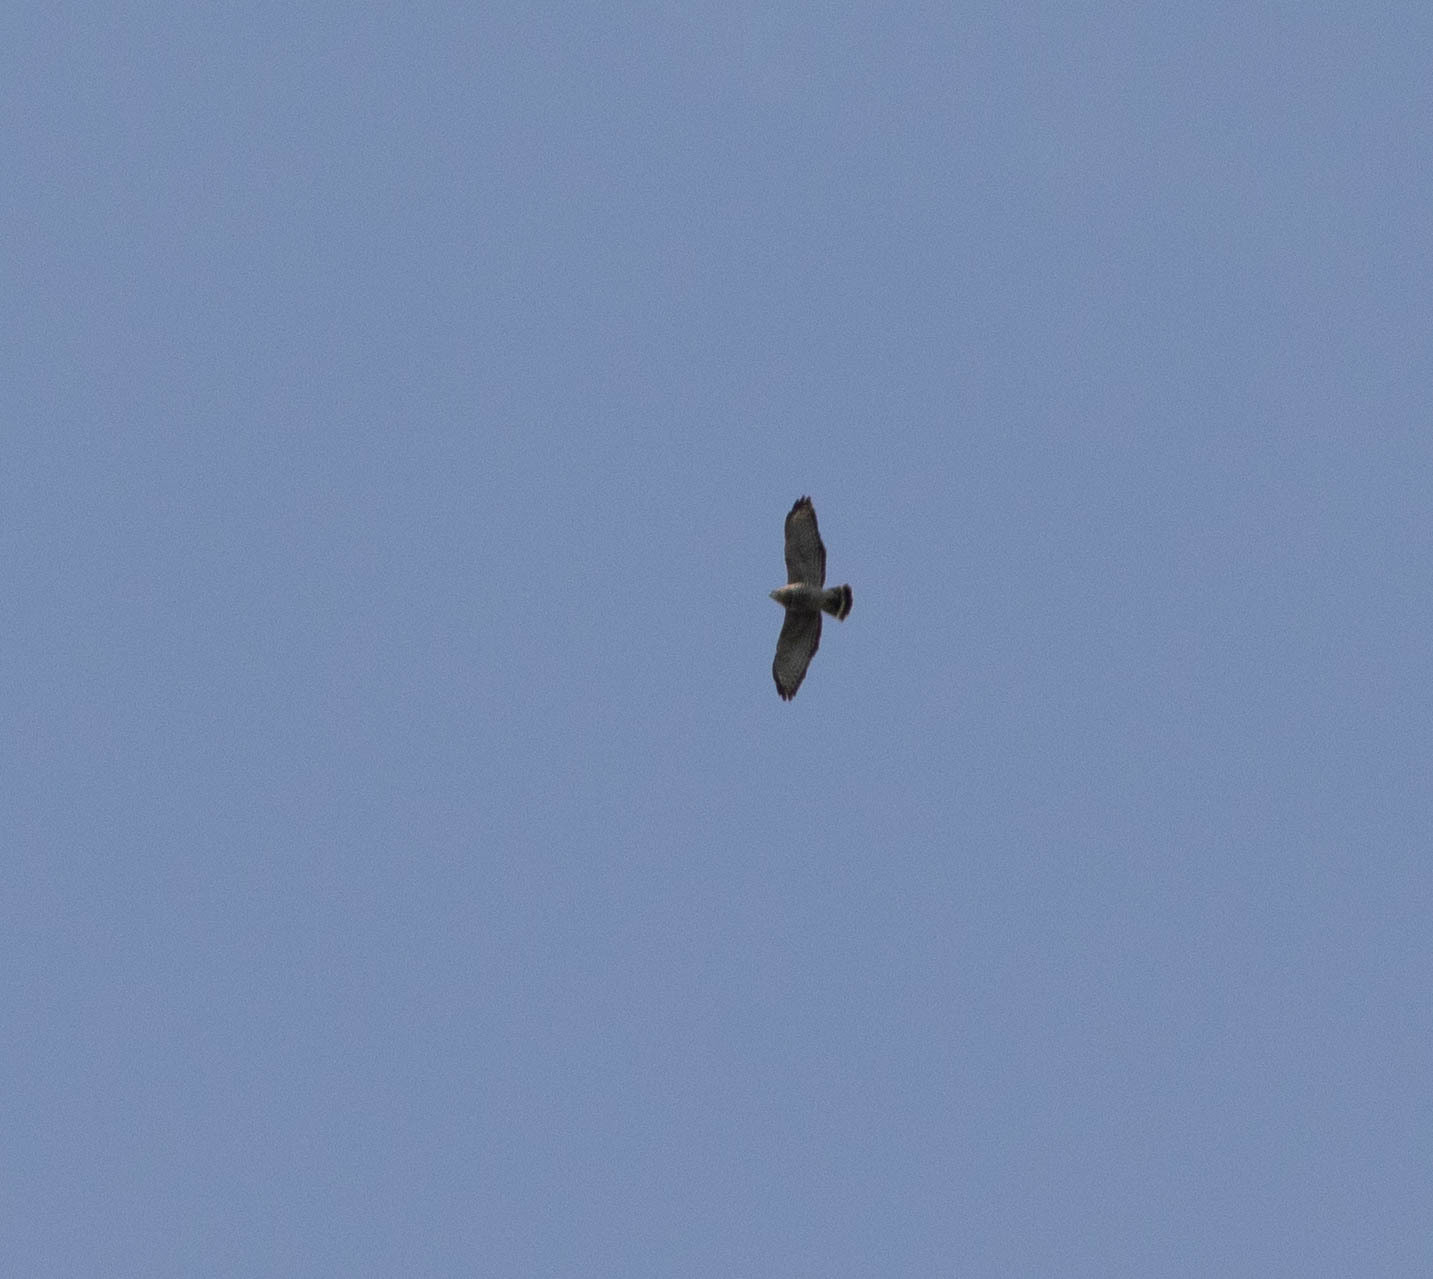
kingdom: Animalia
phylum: Chordata
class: Aves
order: Accipitriformes
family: Accipitridae
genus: Buteo
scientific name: Buteo platypterus
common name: Broad-winged hawk
